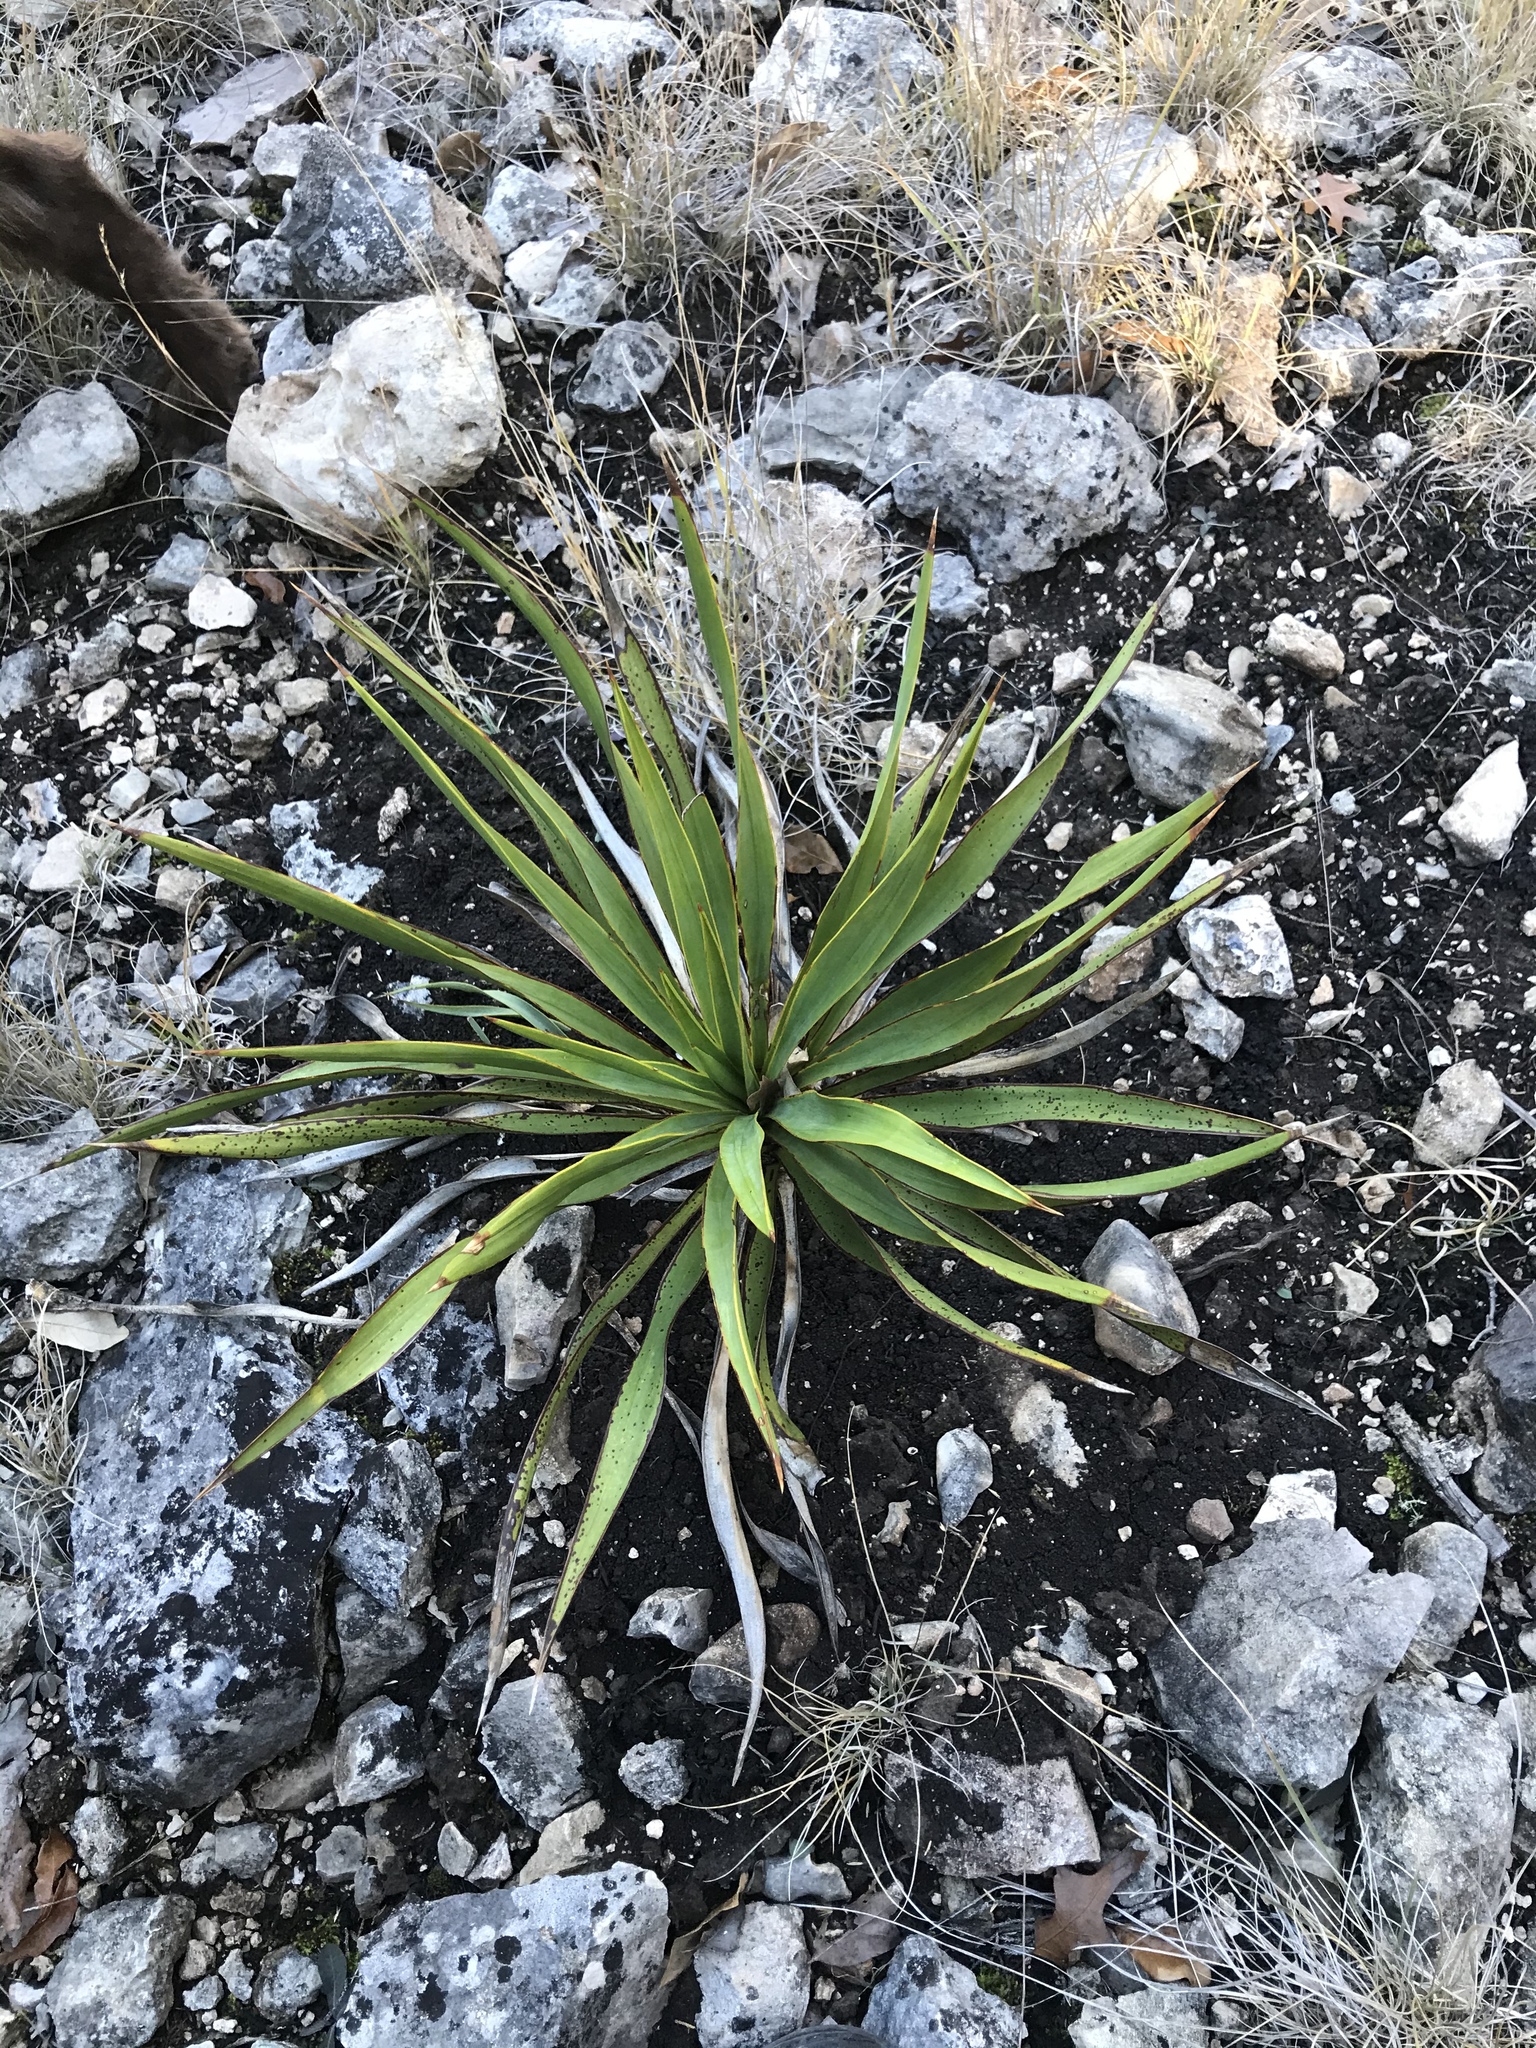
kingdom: Plantae
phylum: Tracheophyta
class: Liliopsida
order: Asparagales
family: Asparagaceae
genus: Yucca
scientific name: Yucca rupicola
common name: Twisted-leaf spanish-dagger
